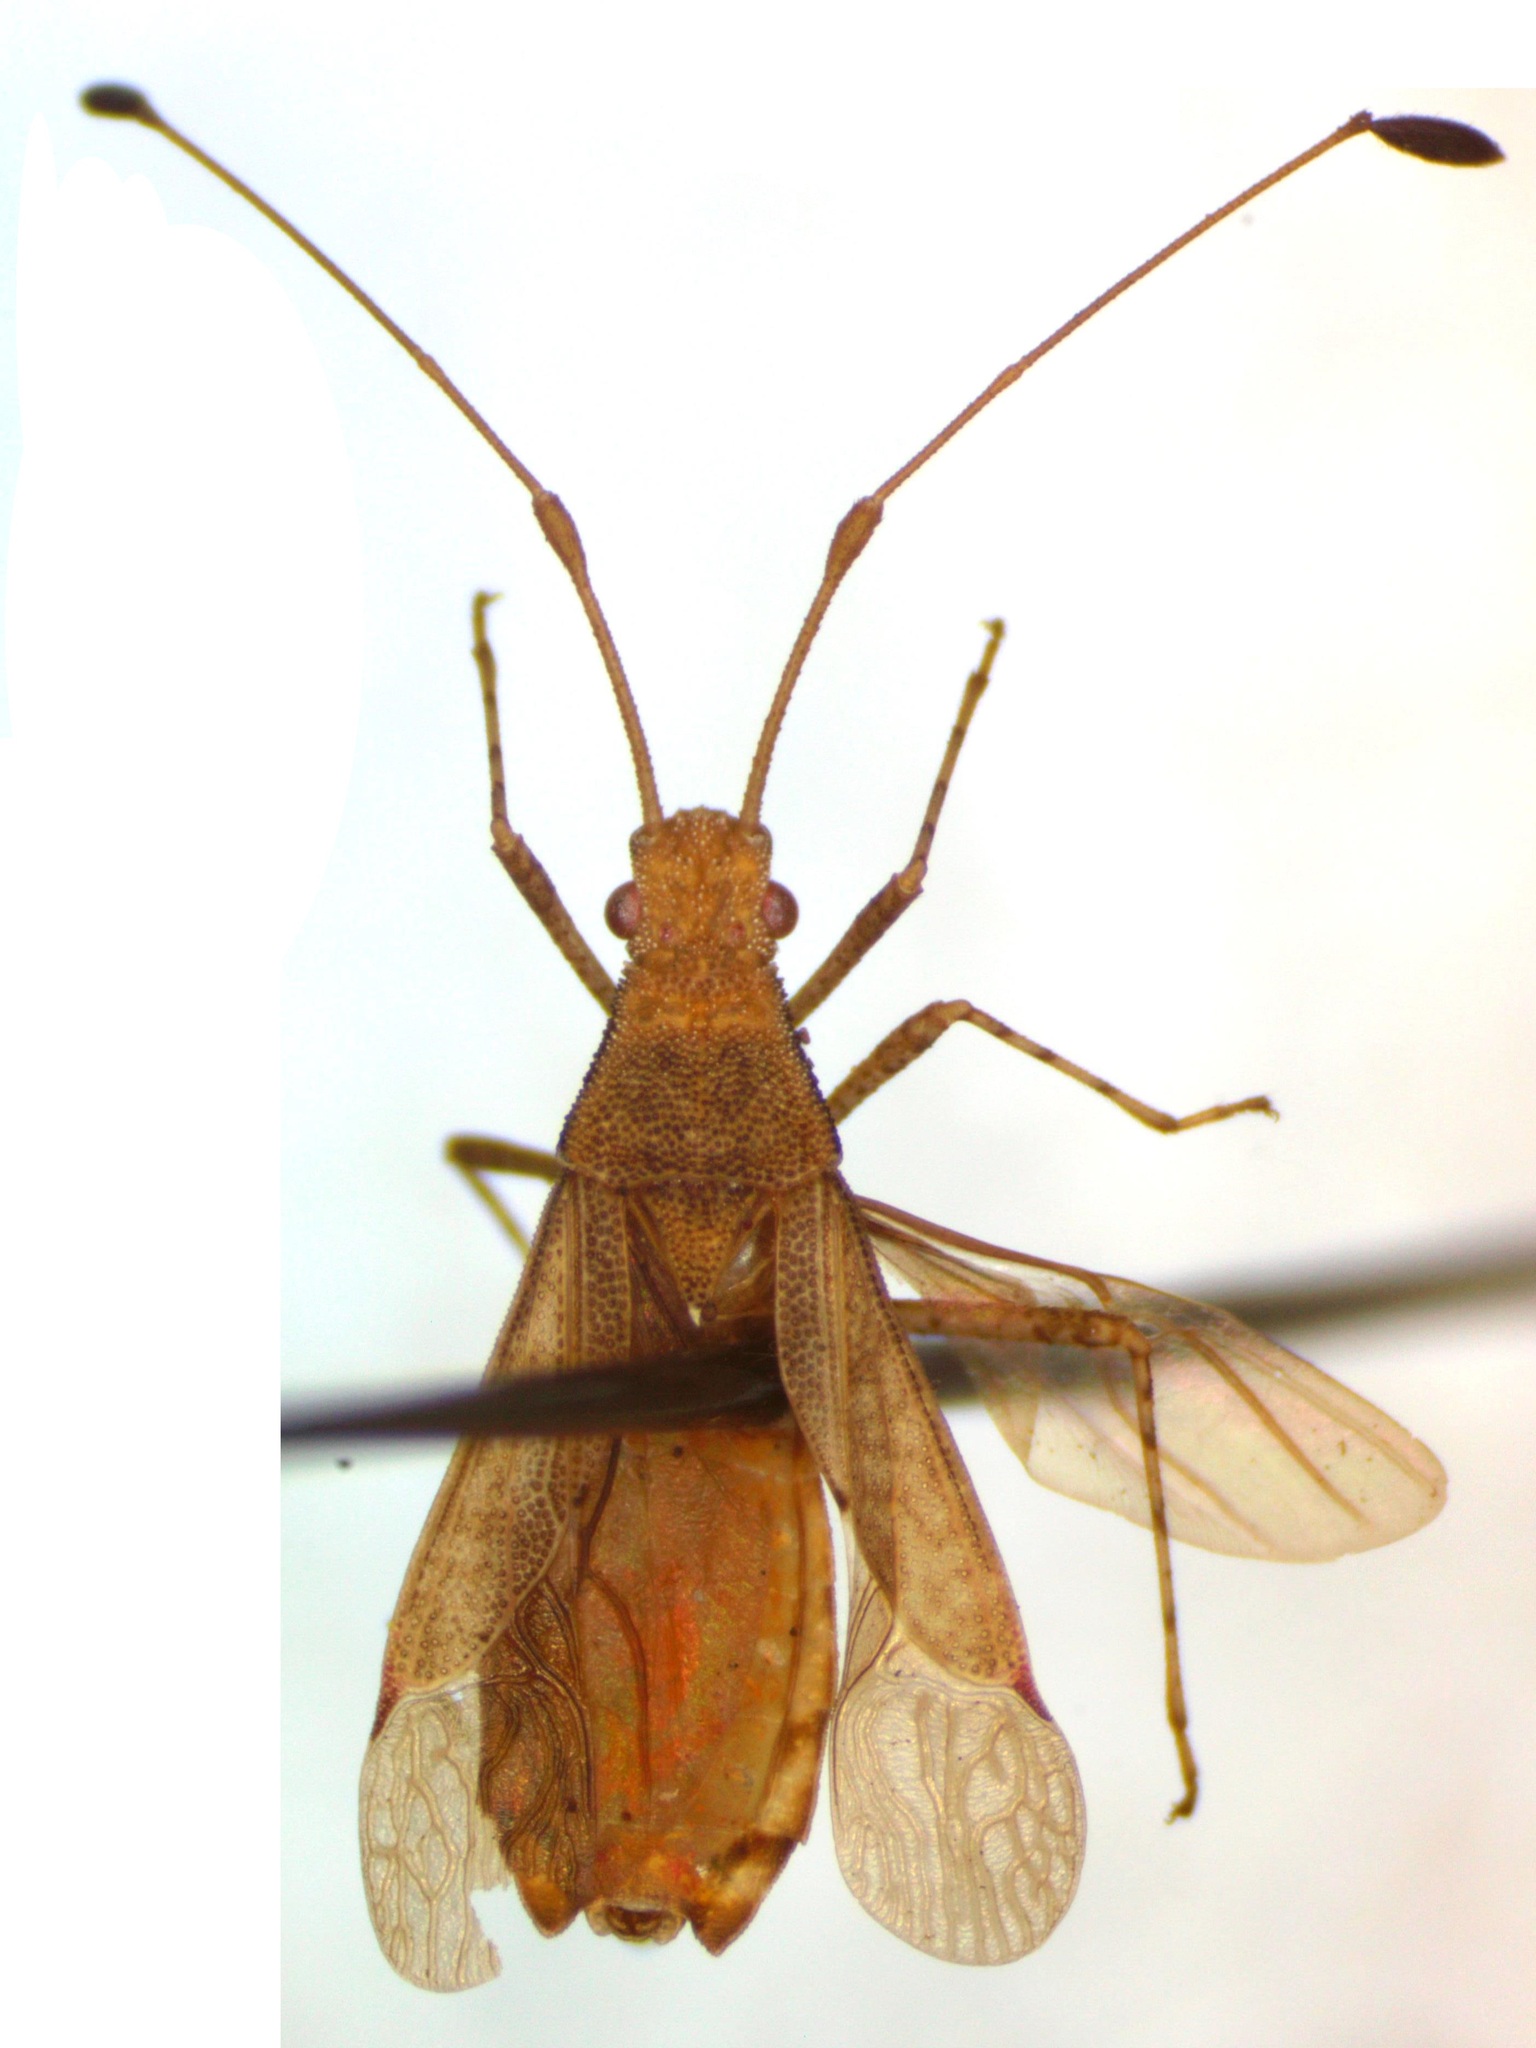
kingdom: Animalia
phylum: Arthropoda
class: Insecta
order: Hemiptera
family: Coreidae
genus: Madura
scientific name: Madura perfida
